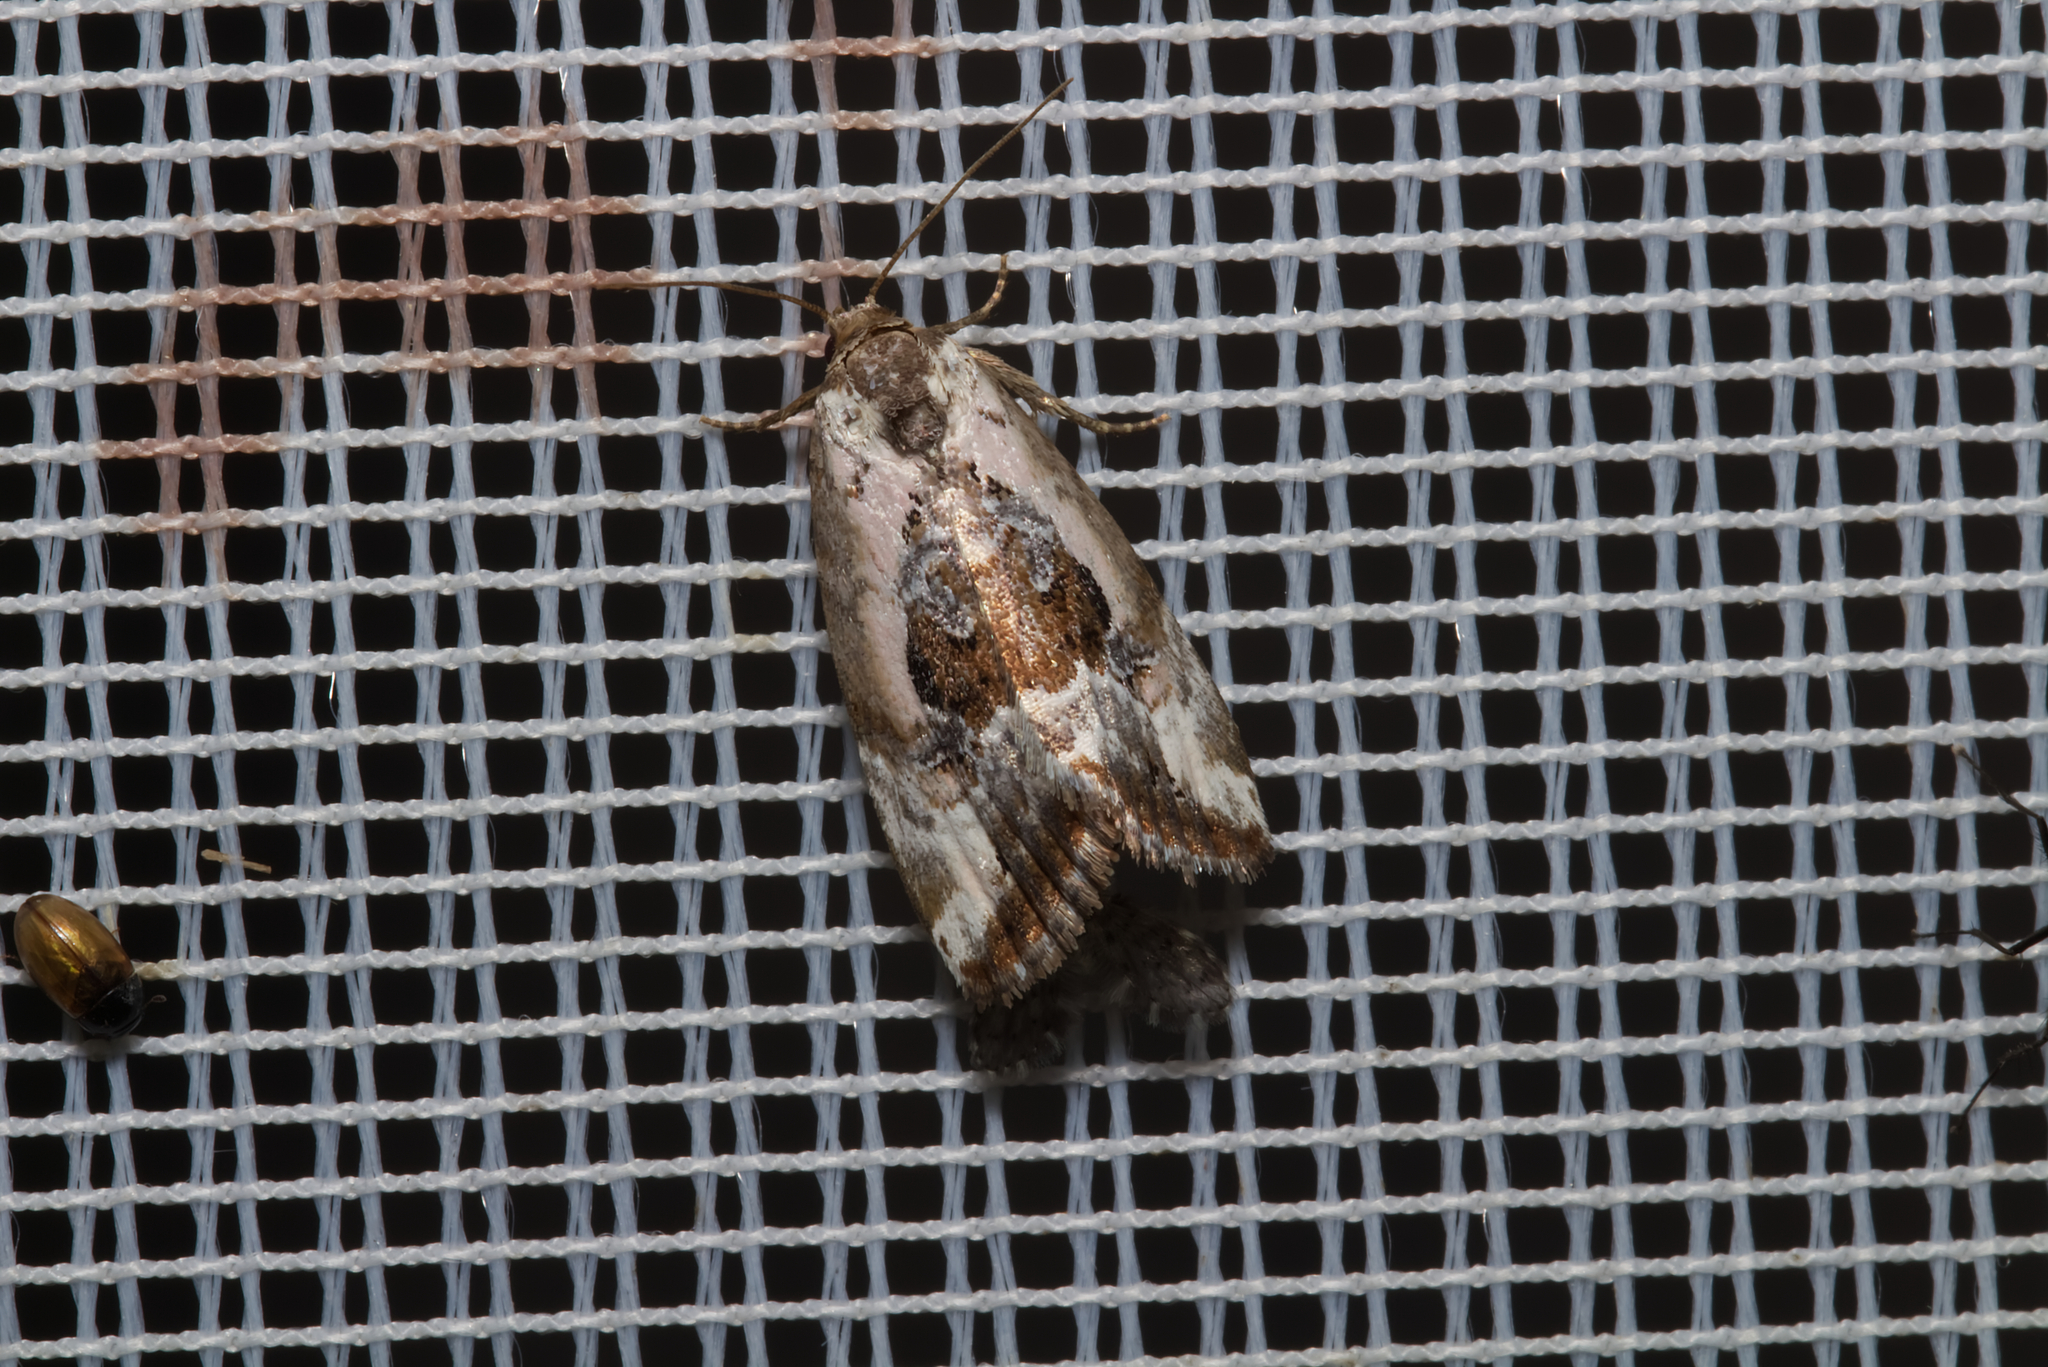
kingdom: Animalia
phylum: Arthropoda
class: Insecta
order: Lepidoptera
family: Noctuidae
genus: Elaphria
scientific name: Elaphria venustula
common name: Rosy marbled
